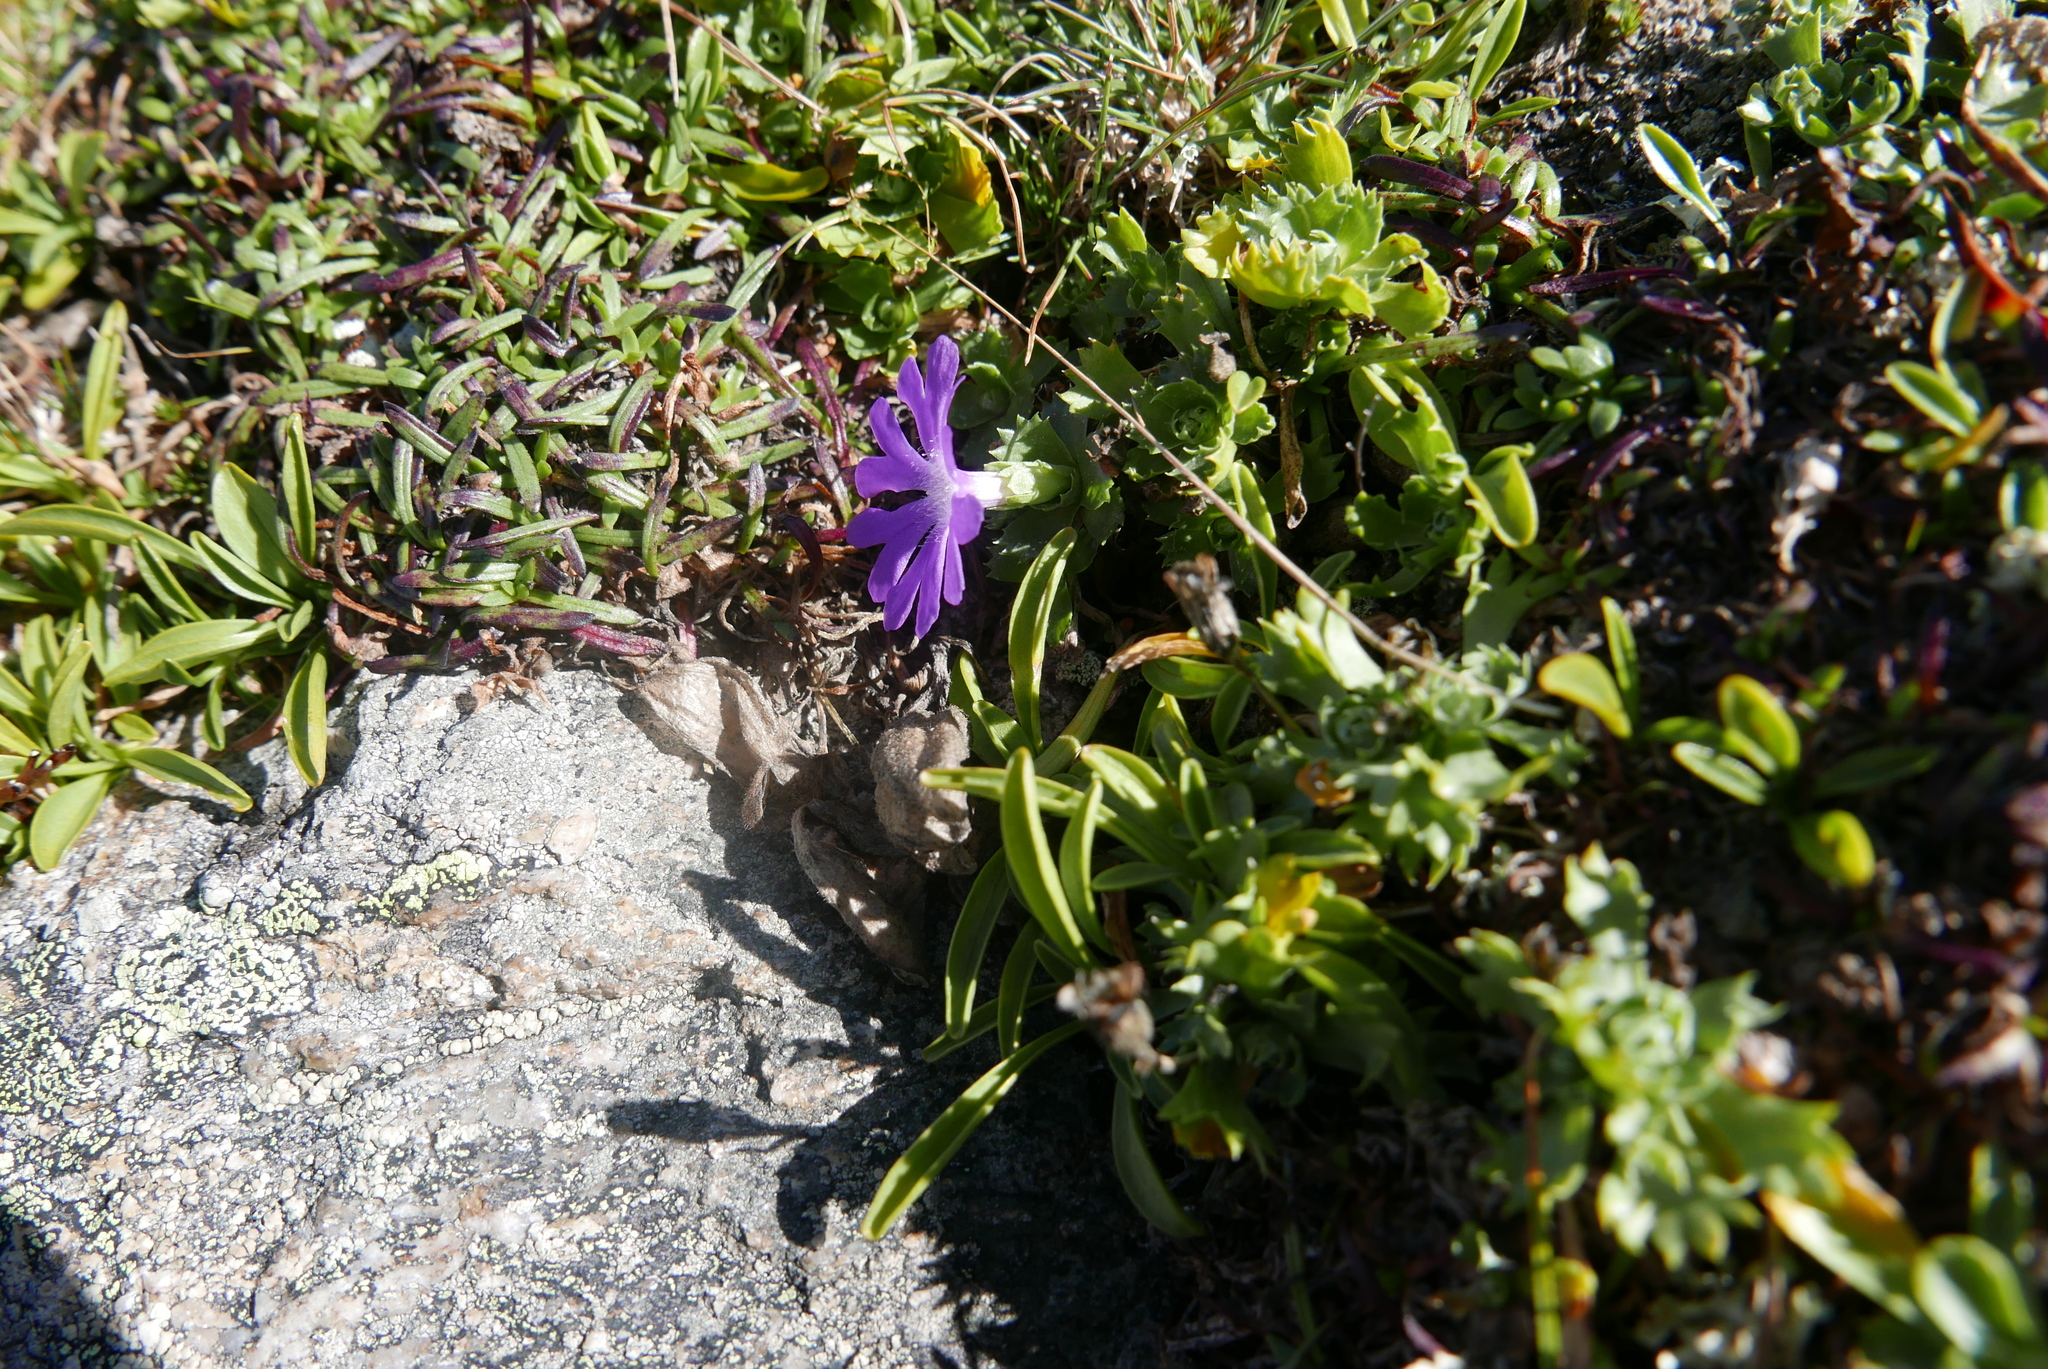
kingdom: Plantae
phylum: Tracheophyta
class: Magnoliopsida
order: Ericales
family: Primulaceae
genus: Primula
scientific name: Primula minima
